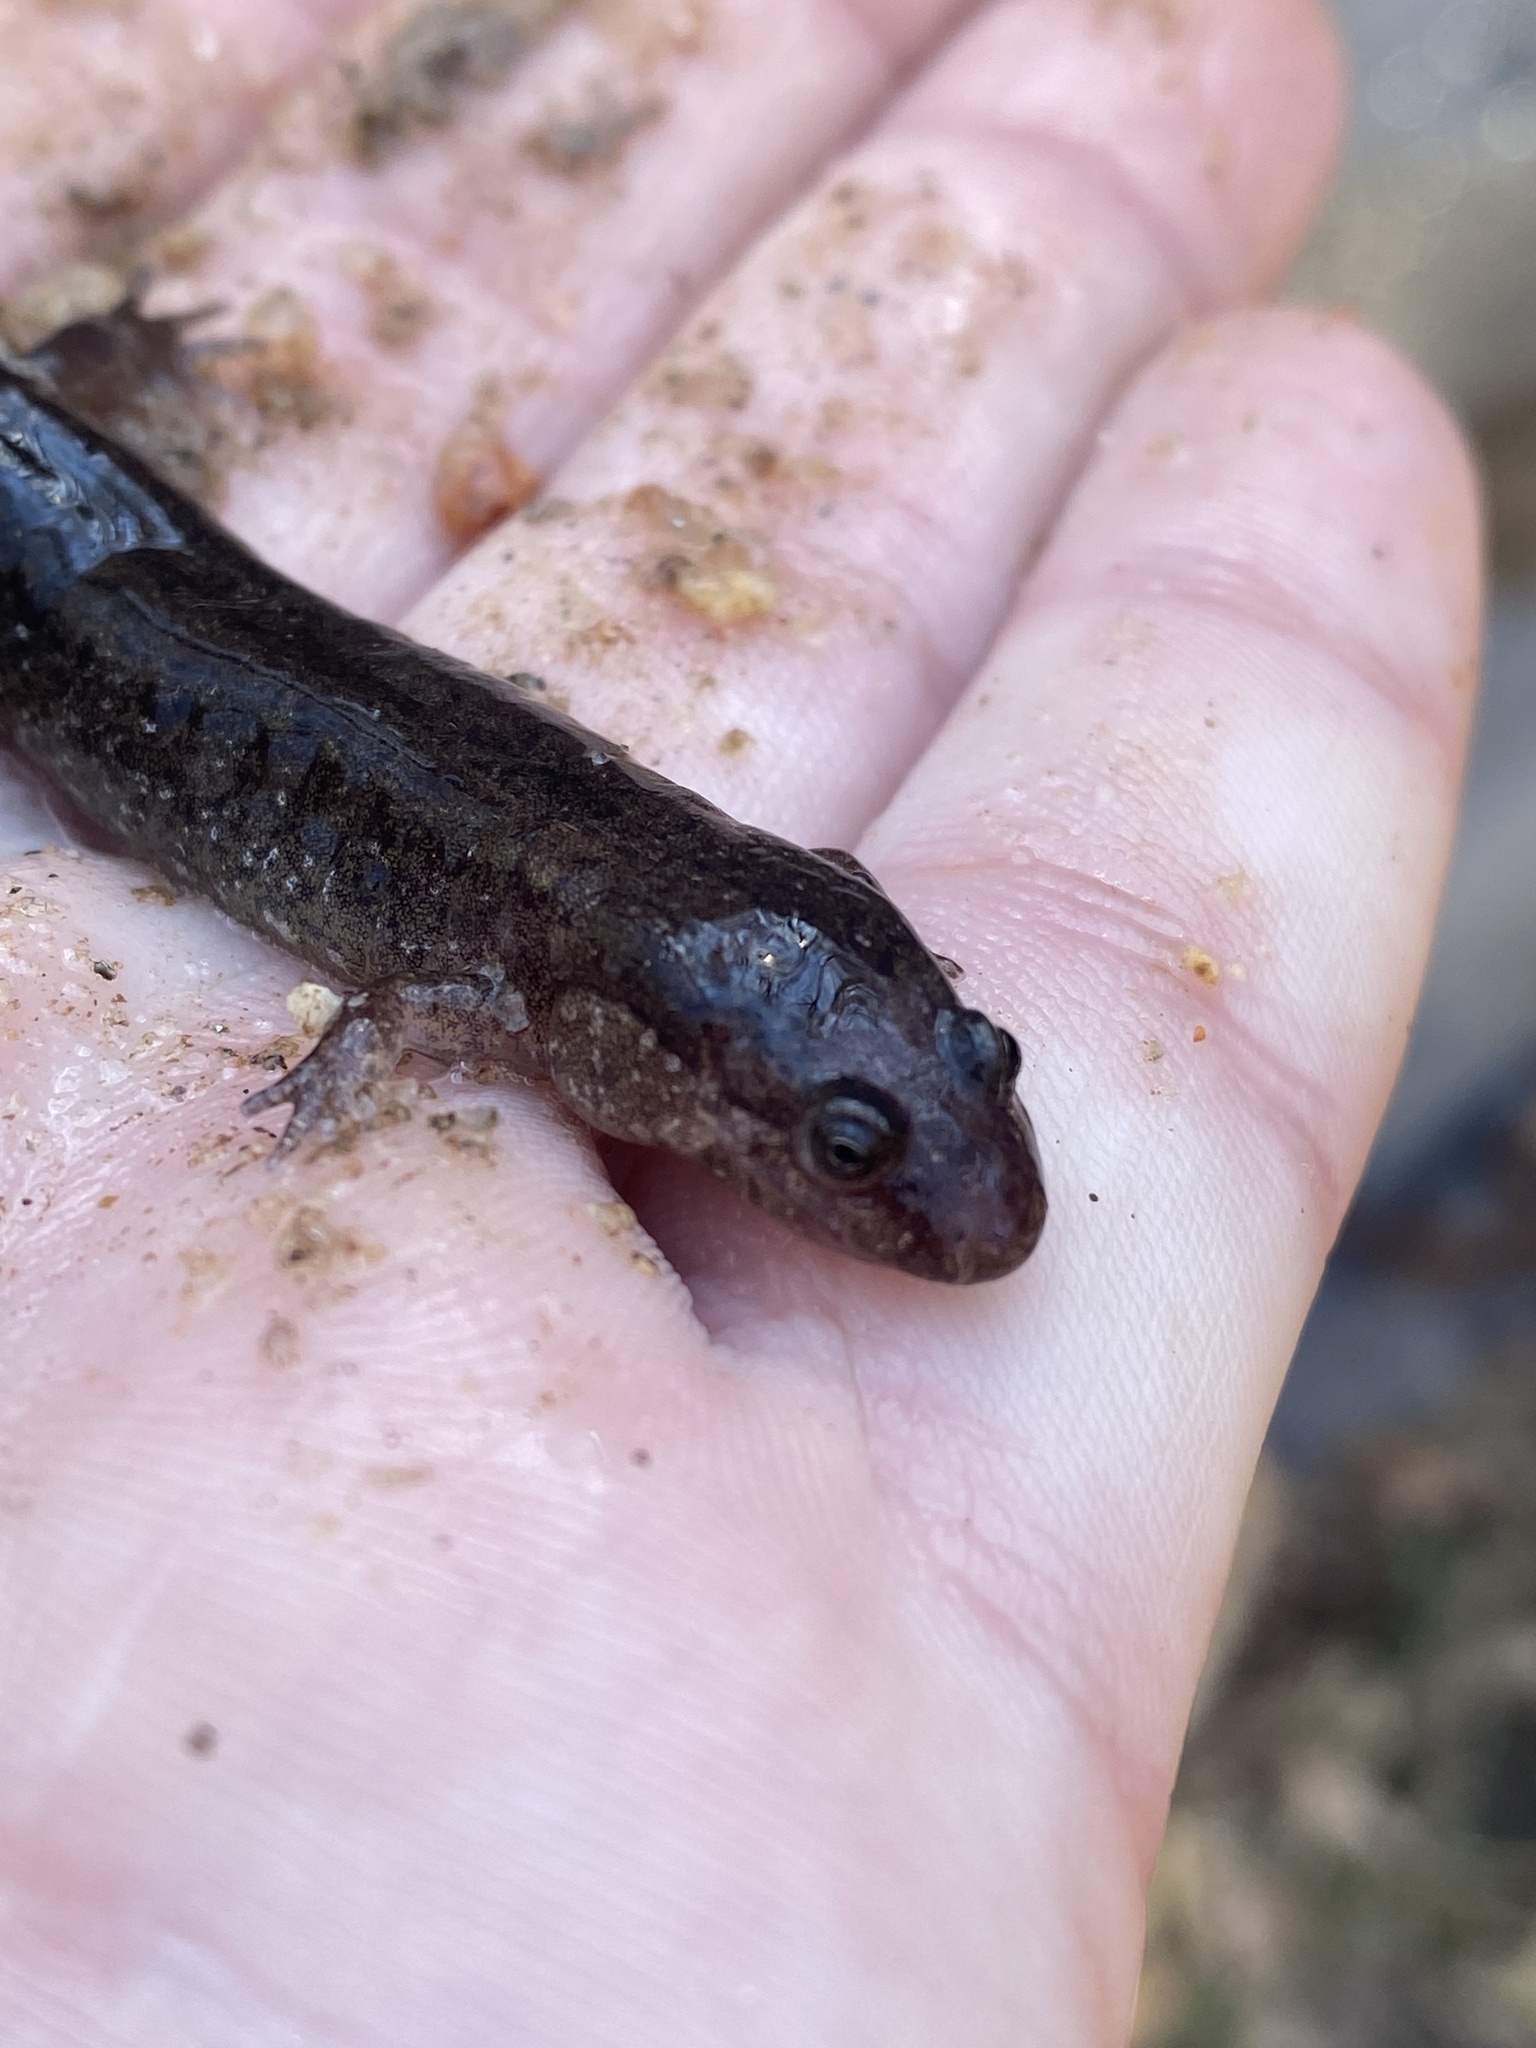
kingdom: Animalia
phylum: Chordata
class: Amphibia
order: Caudata
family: Plethodontidae
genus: Desmognathus
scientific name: Desmognathus
